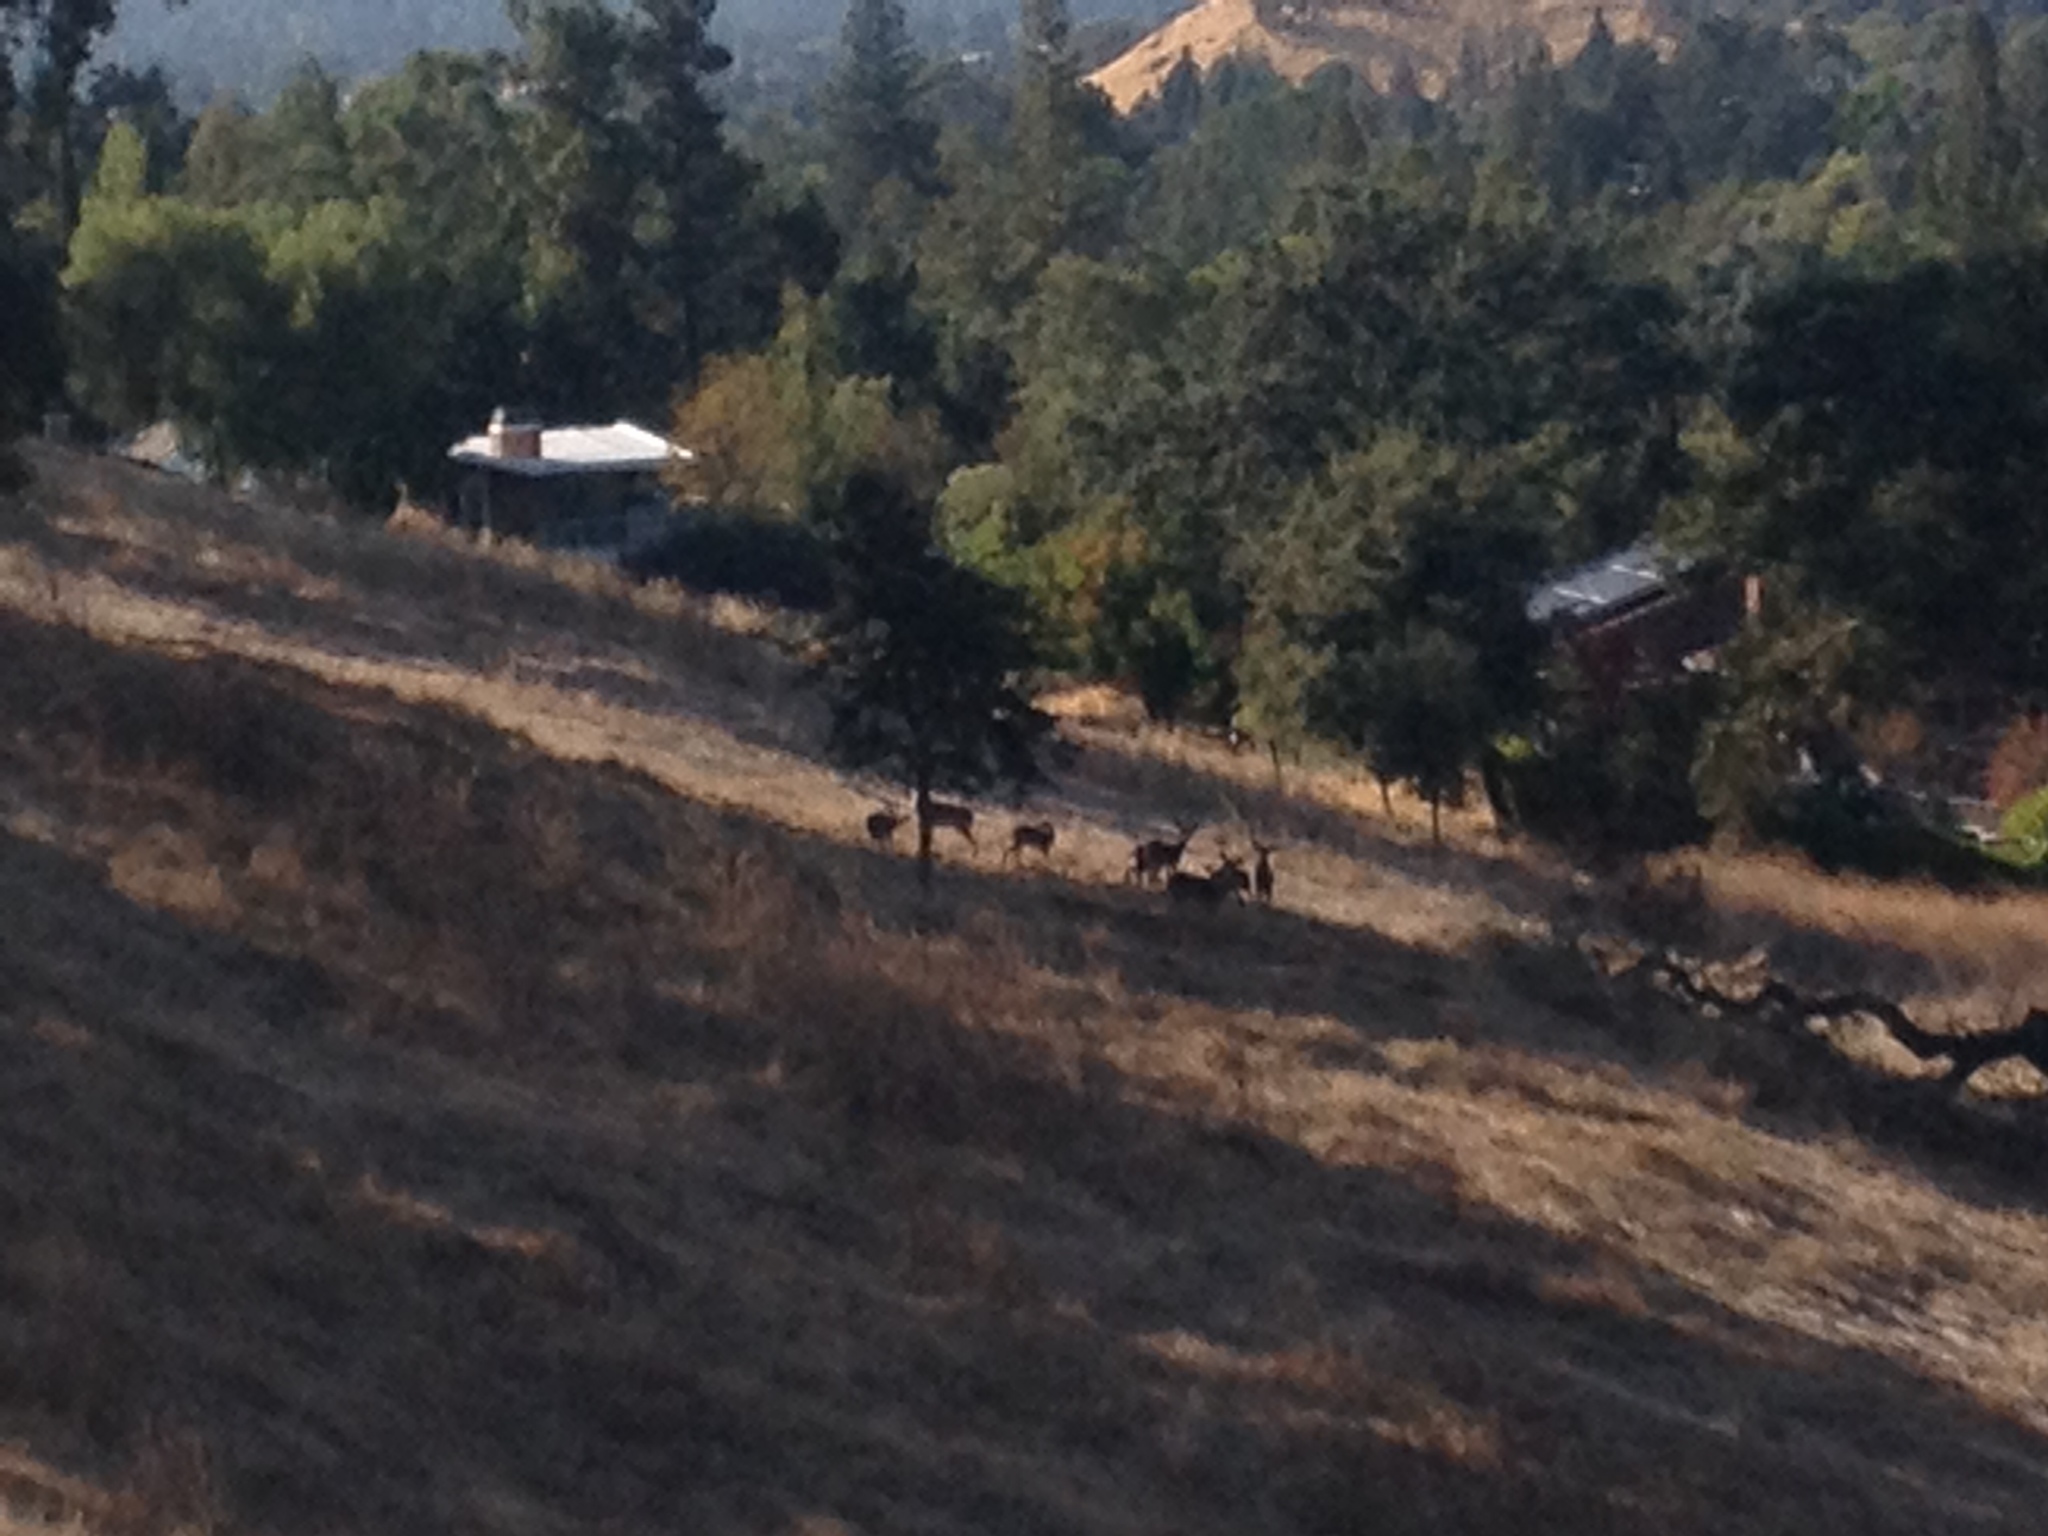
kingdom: Animalia
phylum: Chordata
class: Mammalia
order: Artiodactyla
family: Cervidae
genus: Odocoileus
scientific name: Odocoileus hemionus
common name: Mule deer
